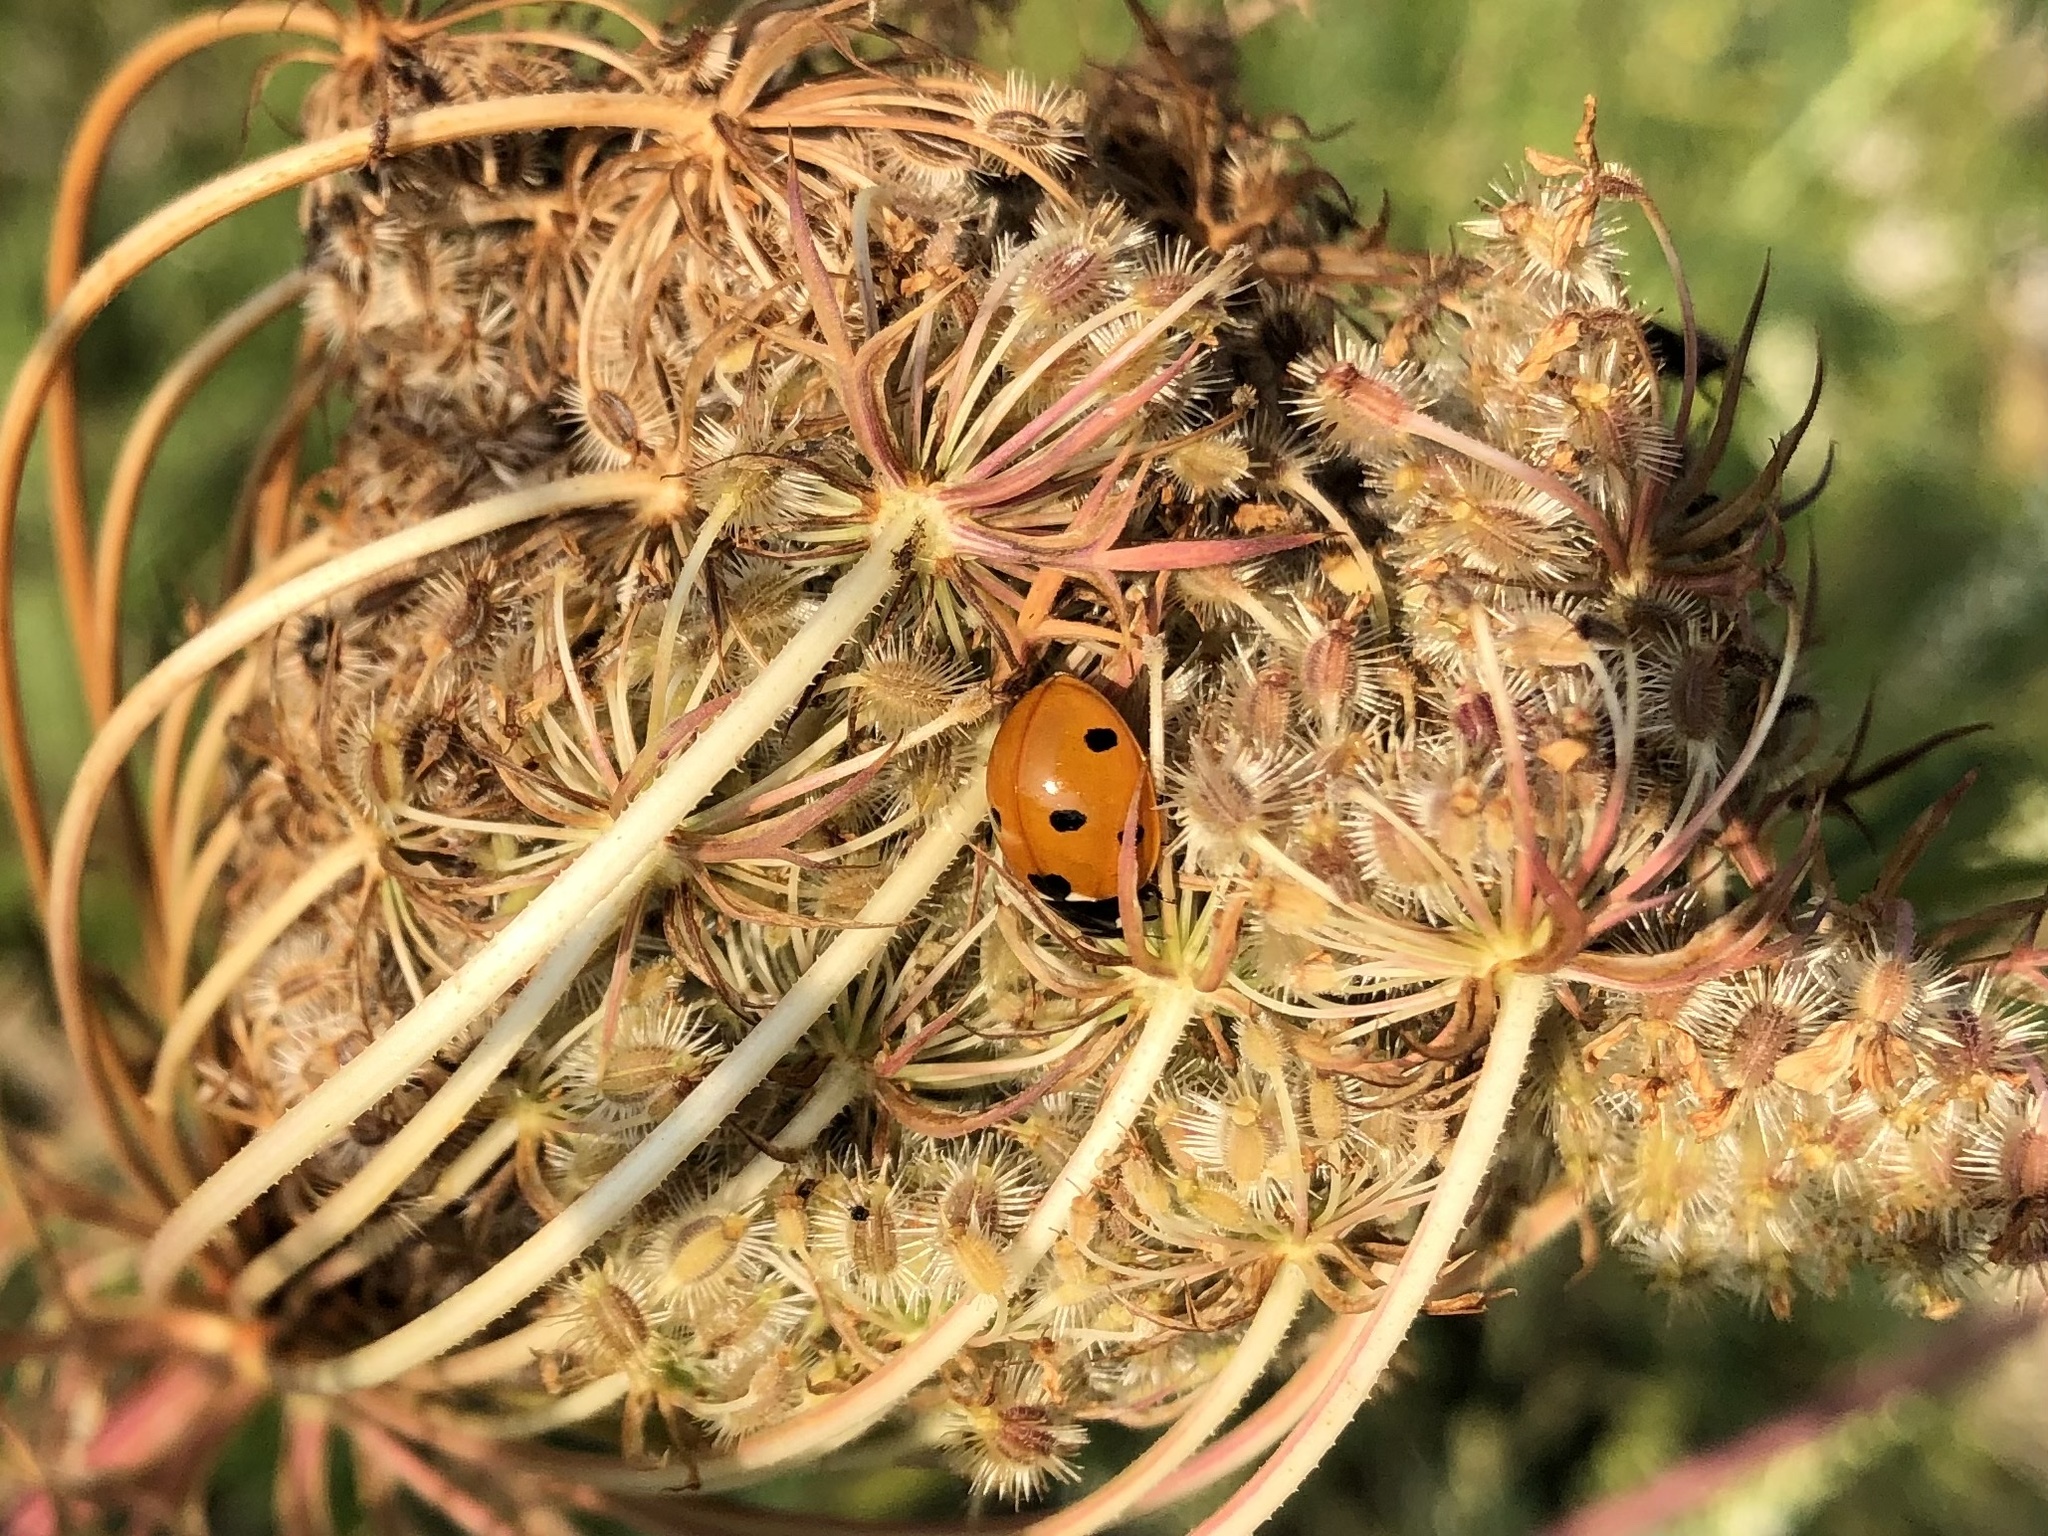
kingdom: Animalia
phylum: Arthropoda
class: Insecta
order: Coleoptera
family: Coccinellidae
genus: Coccinella
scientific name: Coccinella septempunctata
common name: Sevenspotted lady beetle
